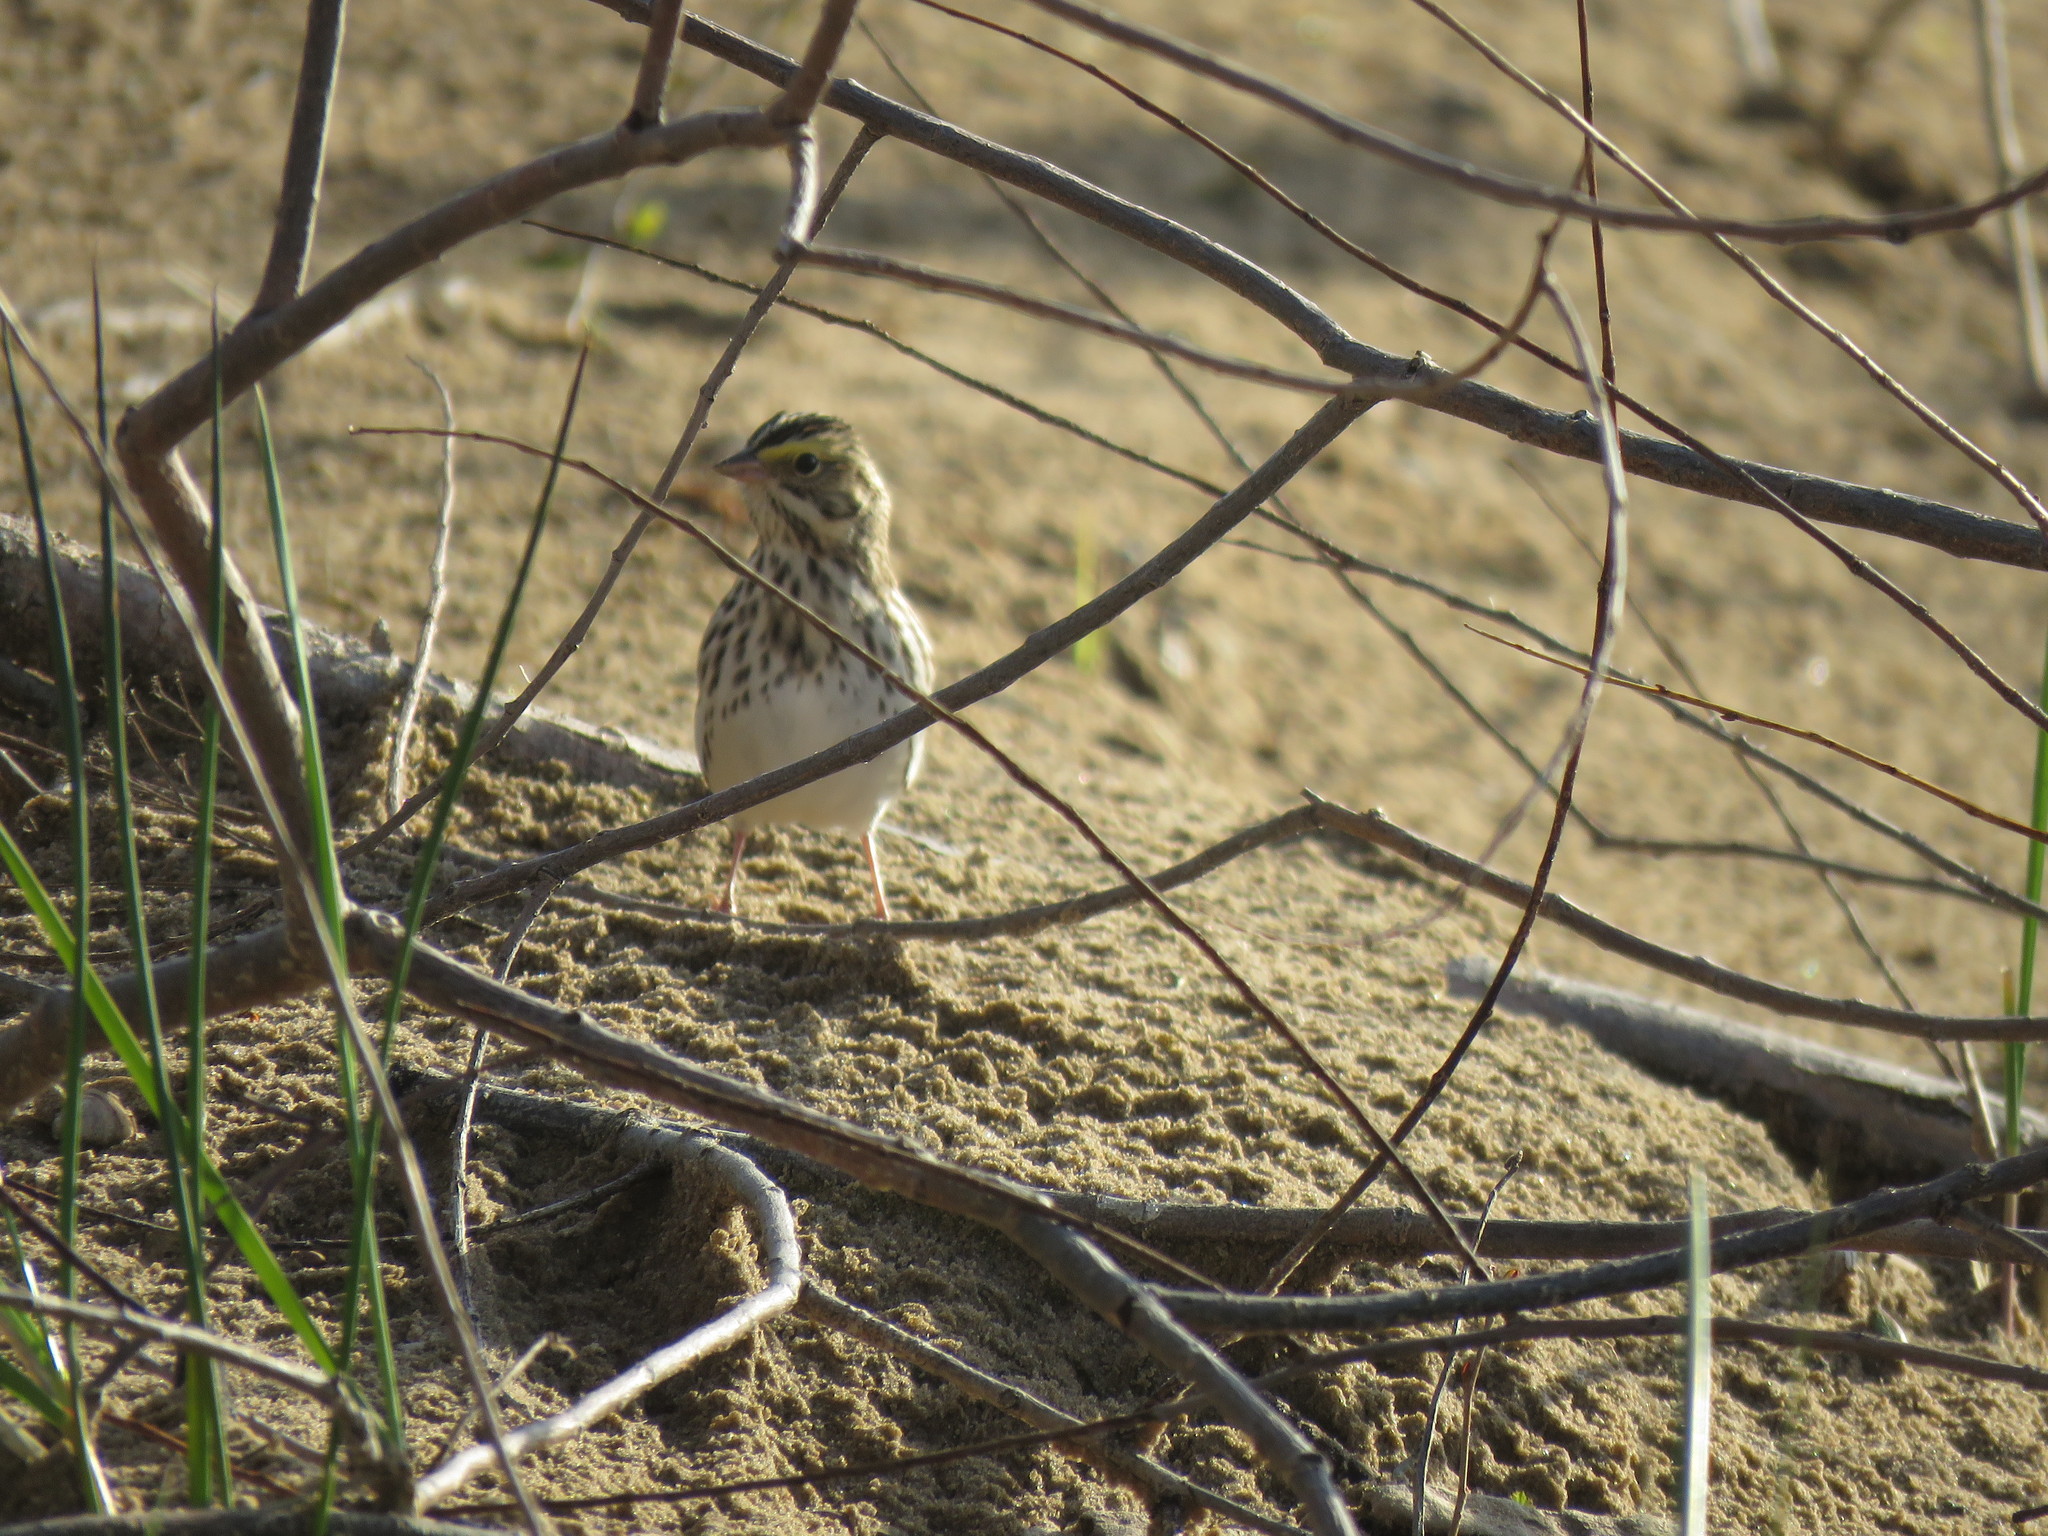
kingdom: Animalia
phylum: Chordata
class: Aves
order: Passeriformes
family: Passerellidae
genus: Passerculus
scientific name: Passerculus sandwichensis
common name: Savannah sparrow
